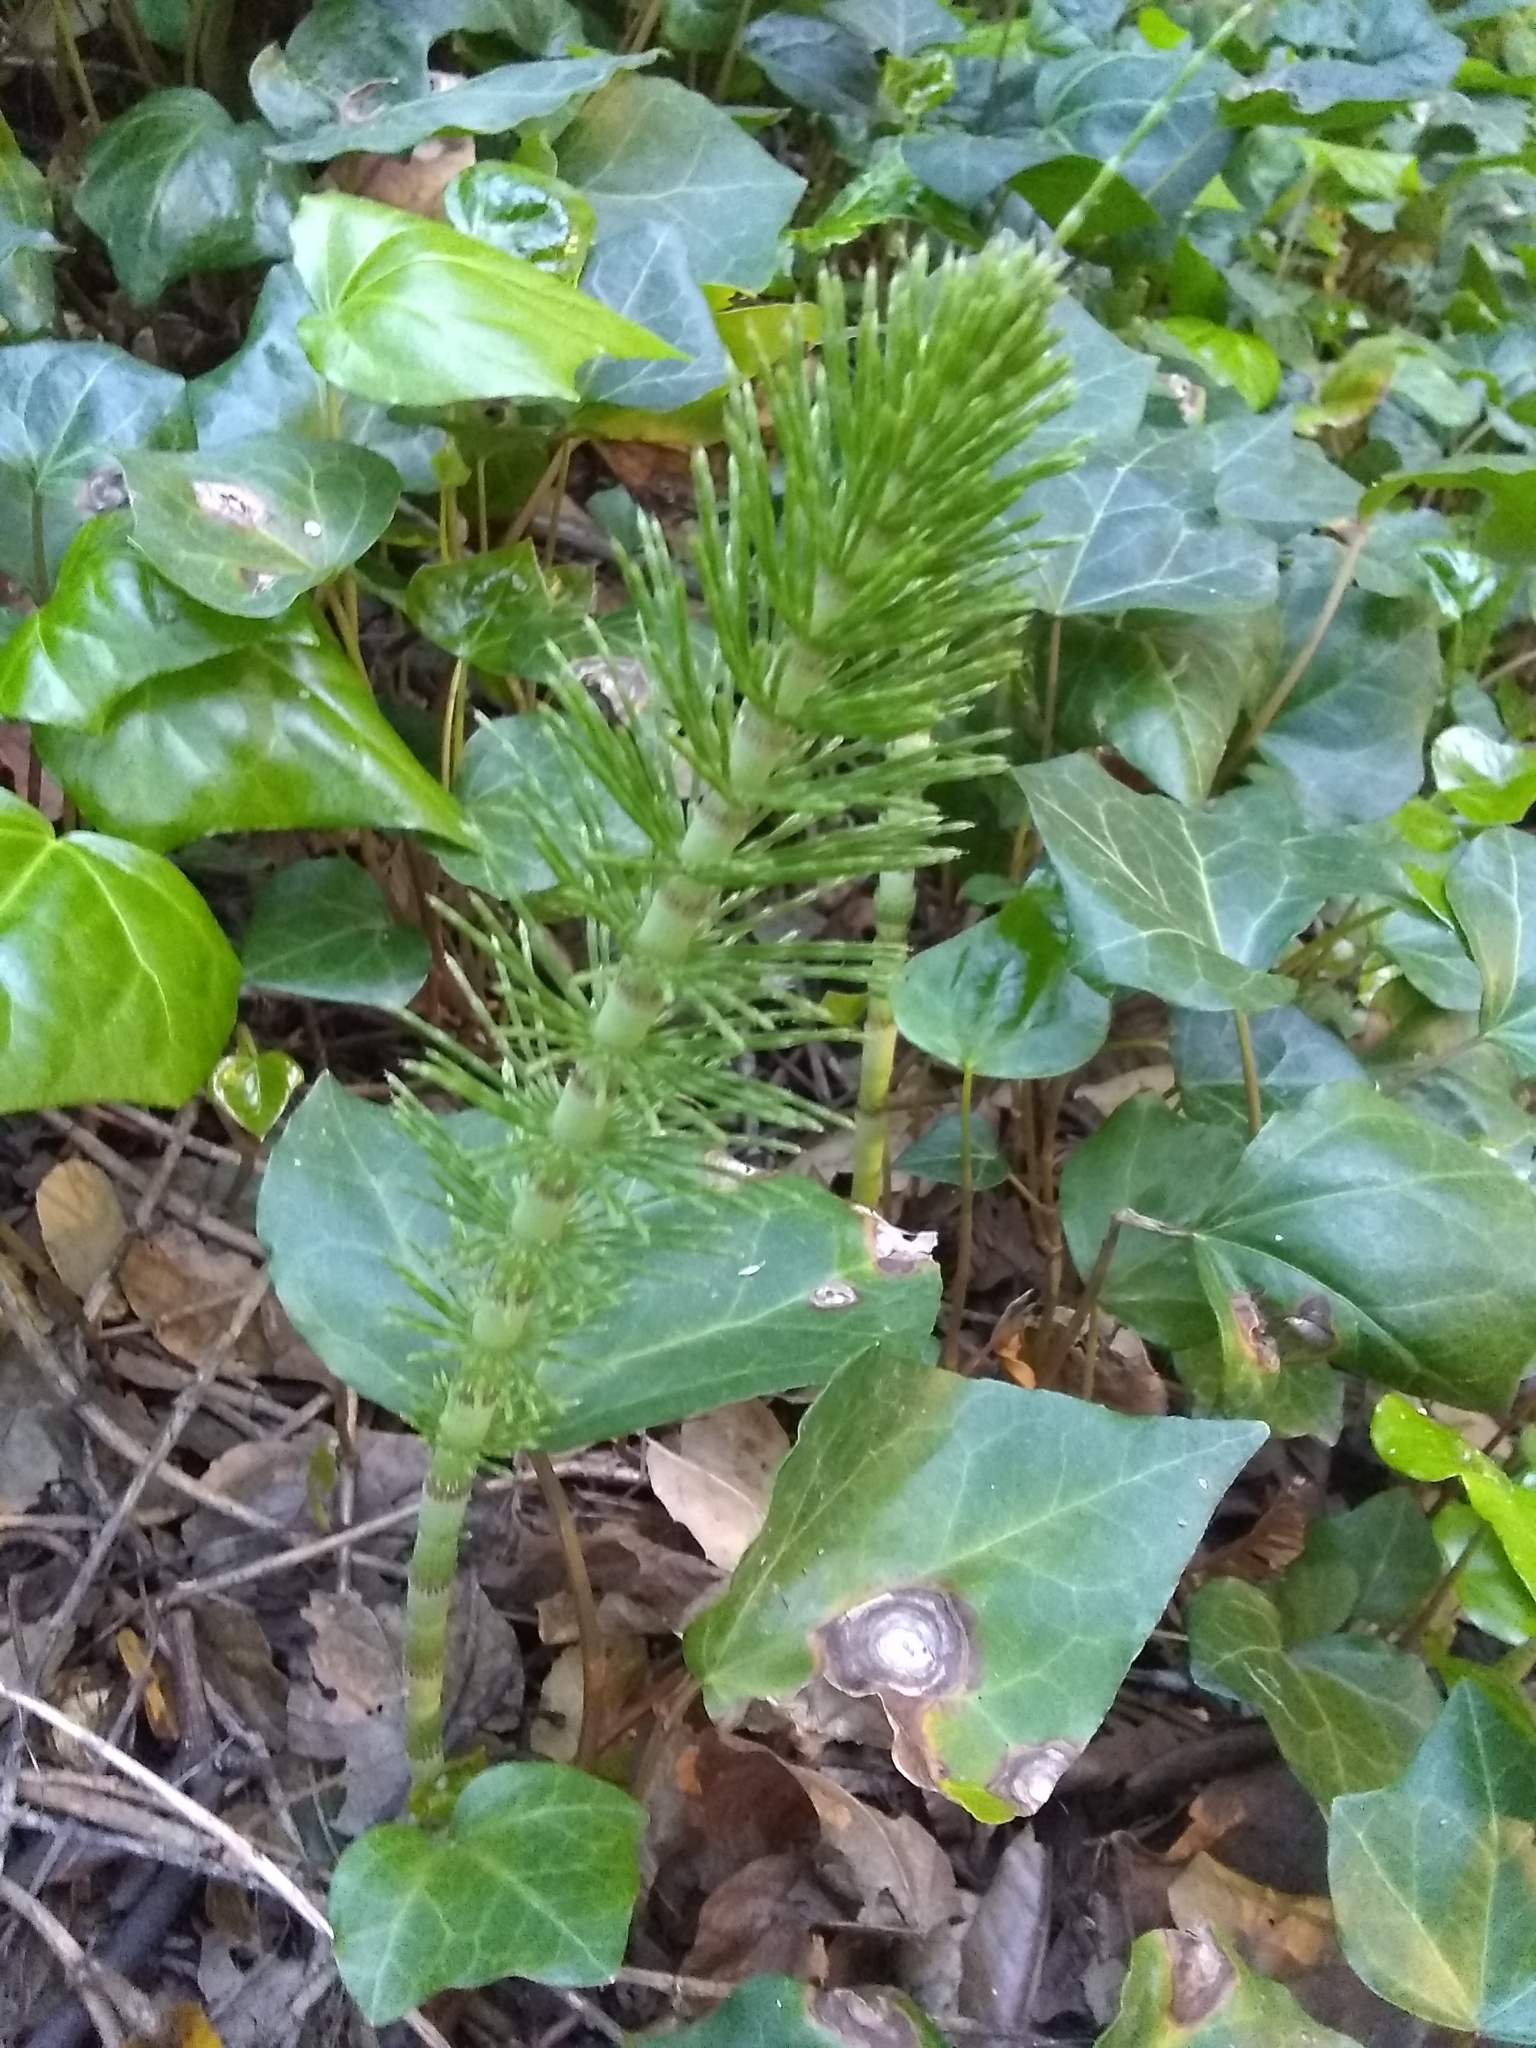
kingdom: Plantae
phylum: Tracheophyta
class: Polypodiopsida
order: Equisetales
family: Equisetaceae
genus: Equisetum
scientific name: Equisetum braunii
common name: Braun's horsetail
